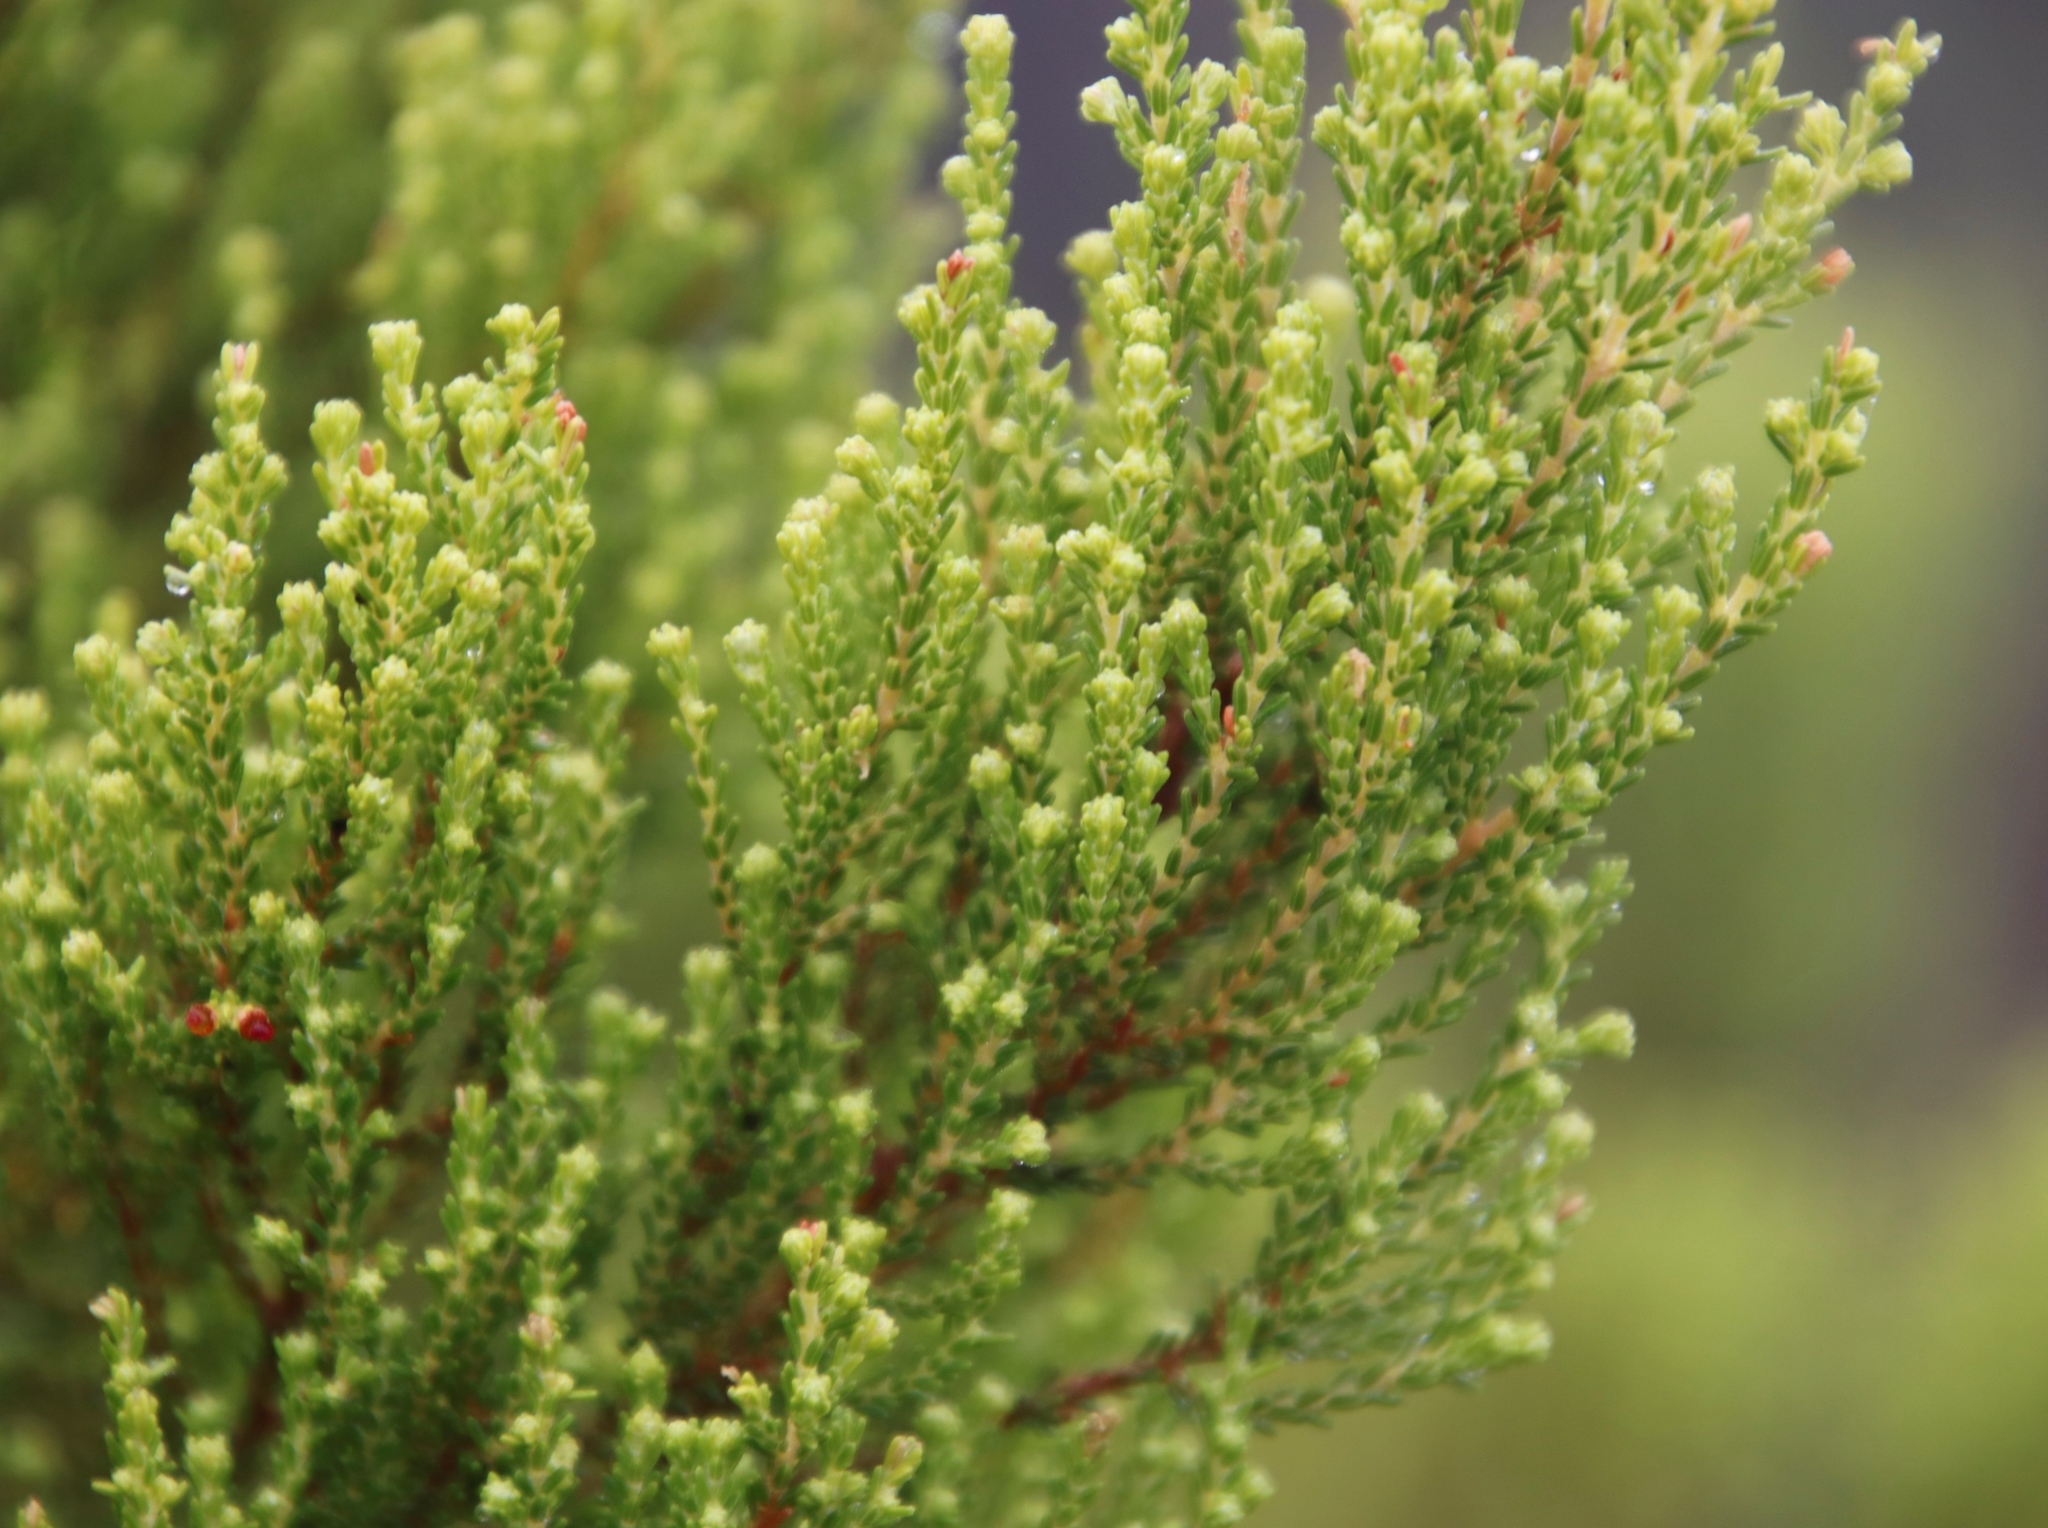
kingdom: Plantae
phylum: Tracheophyta
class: Magnoliopsida
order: Ericales
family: Ericaceae
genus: Erica
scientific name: Erica tristis
